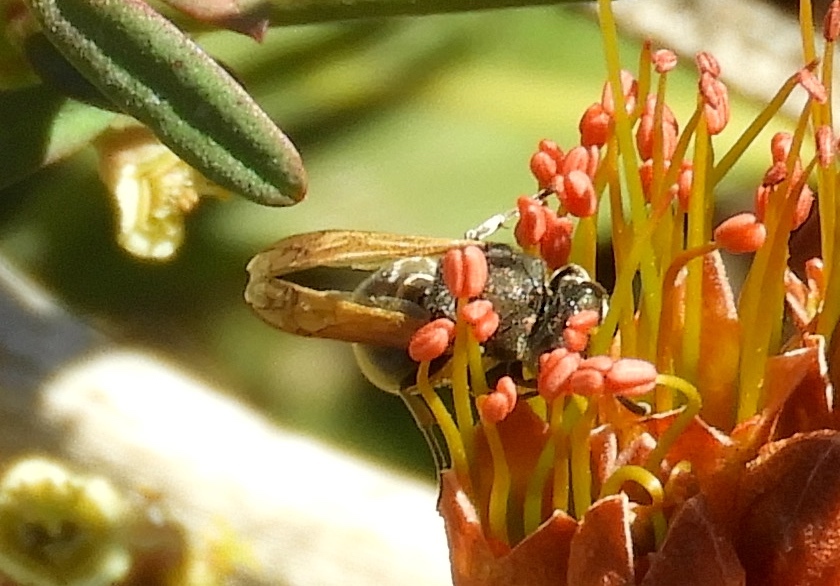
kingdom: Animalia
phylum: Arthropoda
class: Insecta
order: Hymenoptera
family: Vespidae
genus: Brachygastra
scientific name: Brachygastra mellifica
